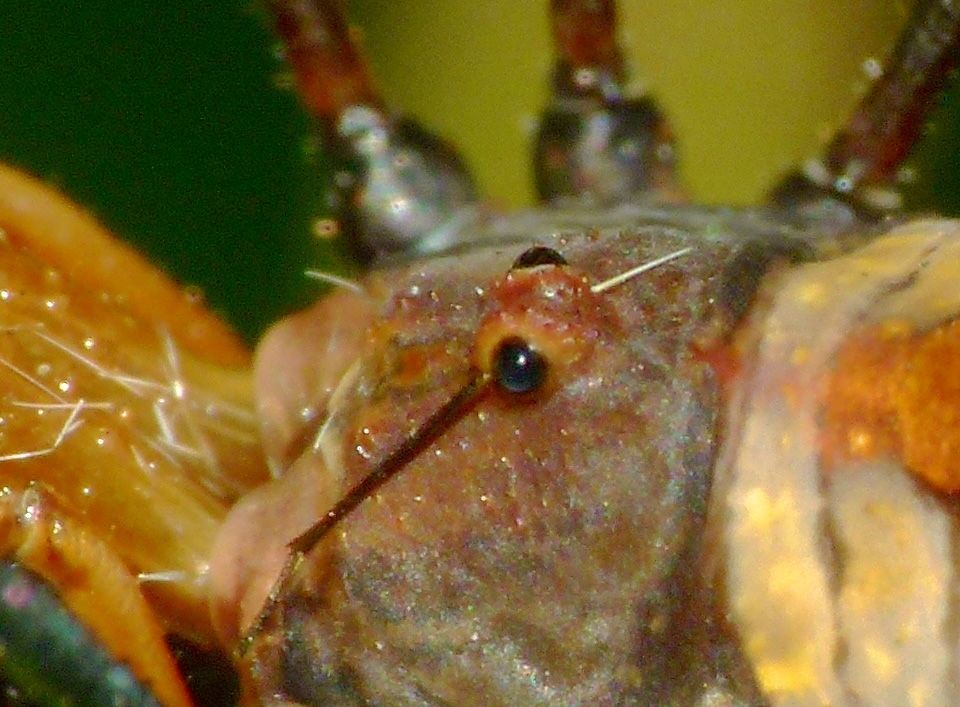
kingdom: Animalia
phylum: Arthropoda
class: Arachnida
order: Opiliones
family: Neopilionidae
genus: Pantopsalis
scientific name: Pantopsalis coronata
